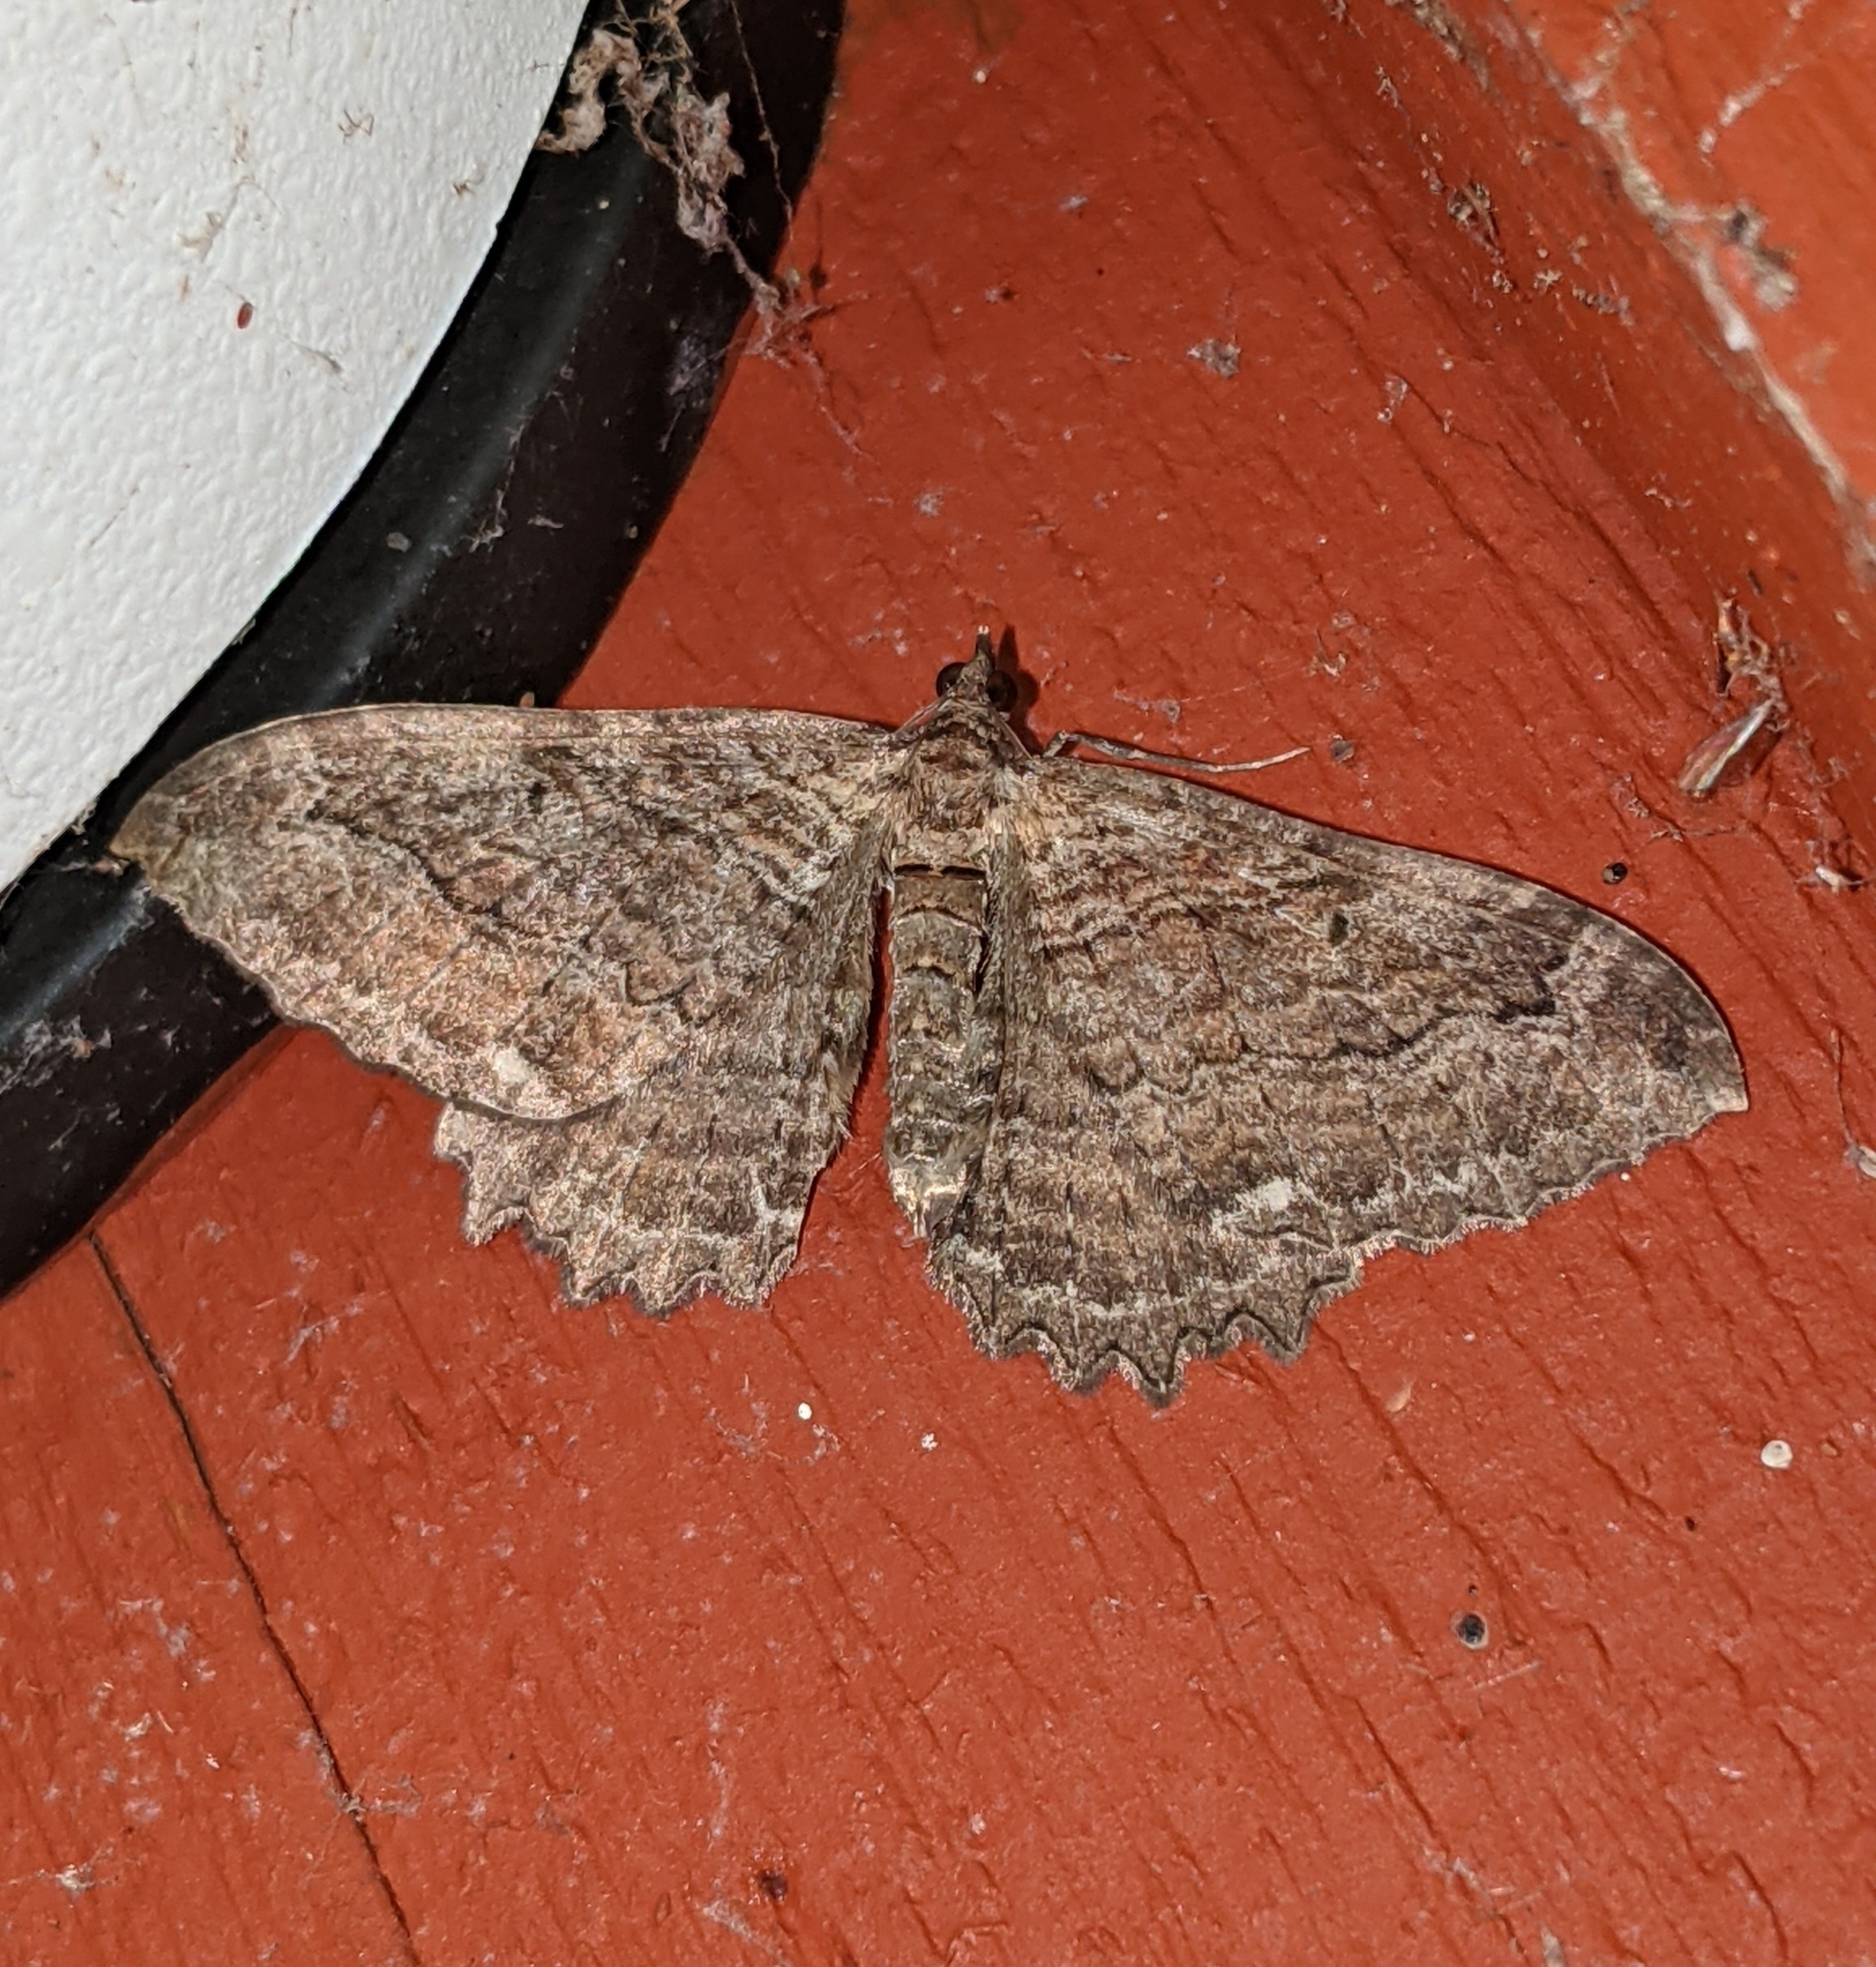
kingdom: Animalia
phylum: Arthropoda
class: Insecta
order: Lepidoptera
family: Geometridae
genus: Rheumaptera
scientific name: Rheumaptera
